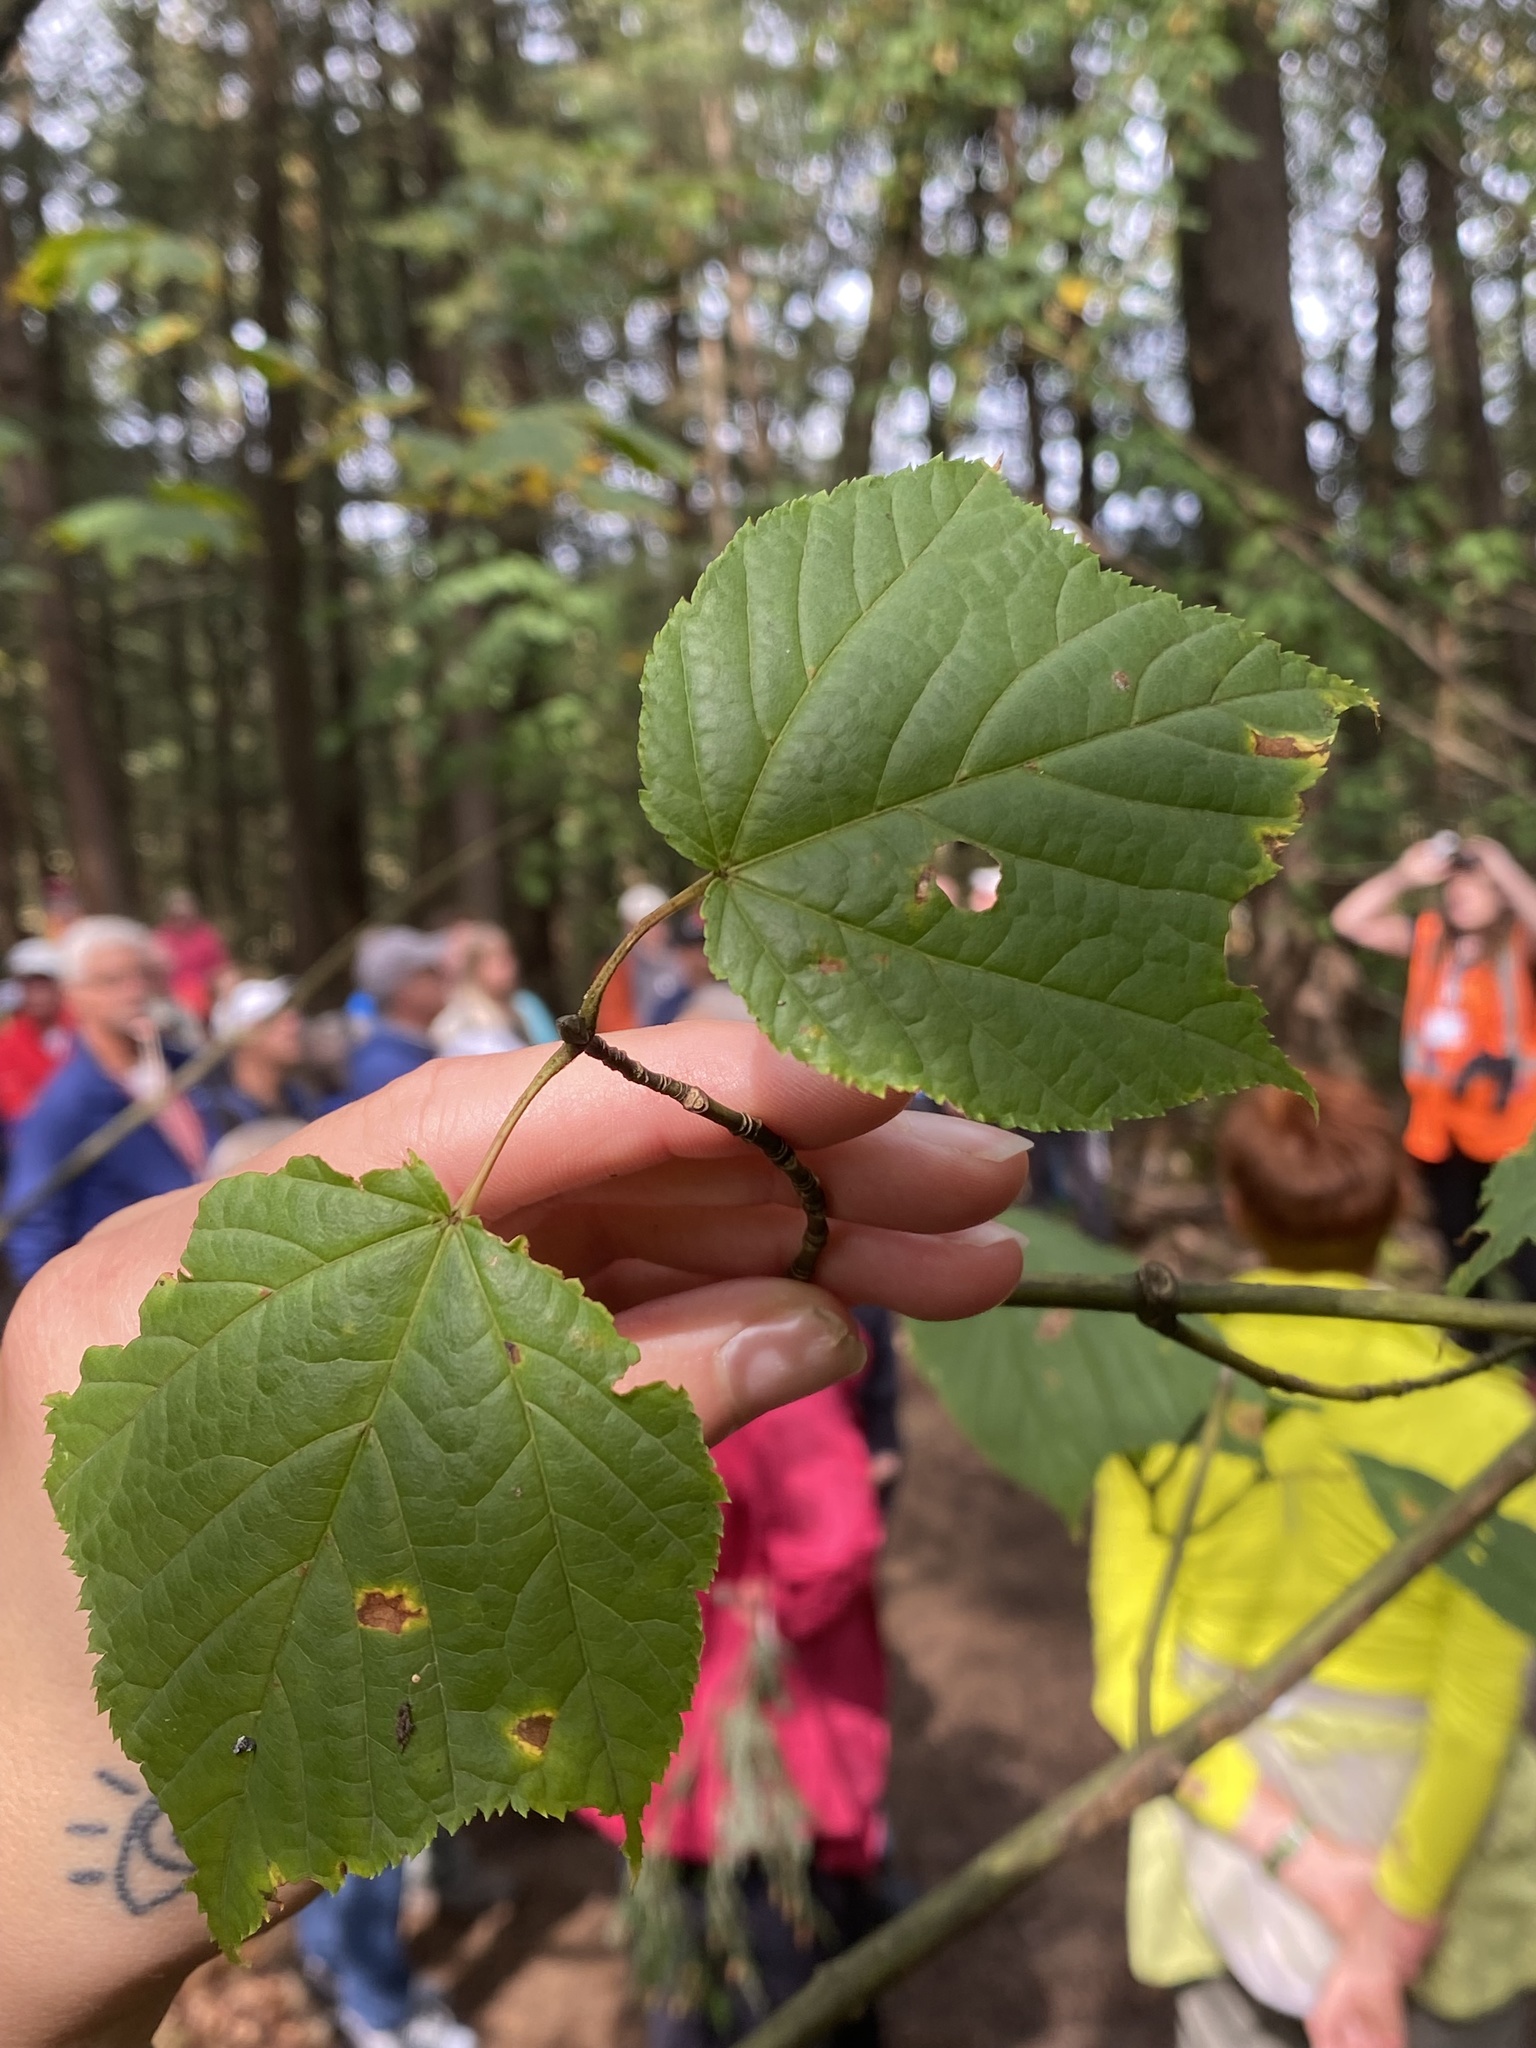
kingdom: Plantae
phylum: Tracheophyta
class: Magnoliopsida
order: Sapindales
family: Sapindaceae
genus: Acer
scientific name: Acer pensylvanicum
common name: Moosewood
